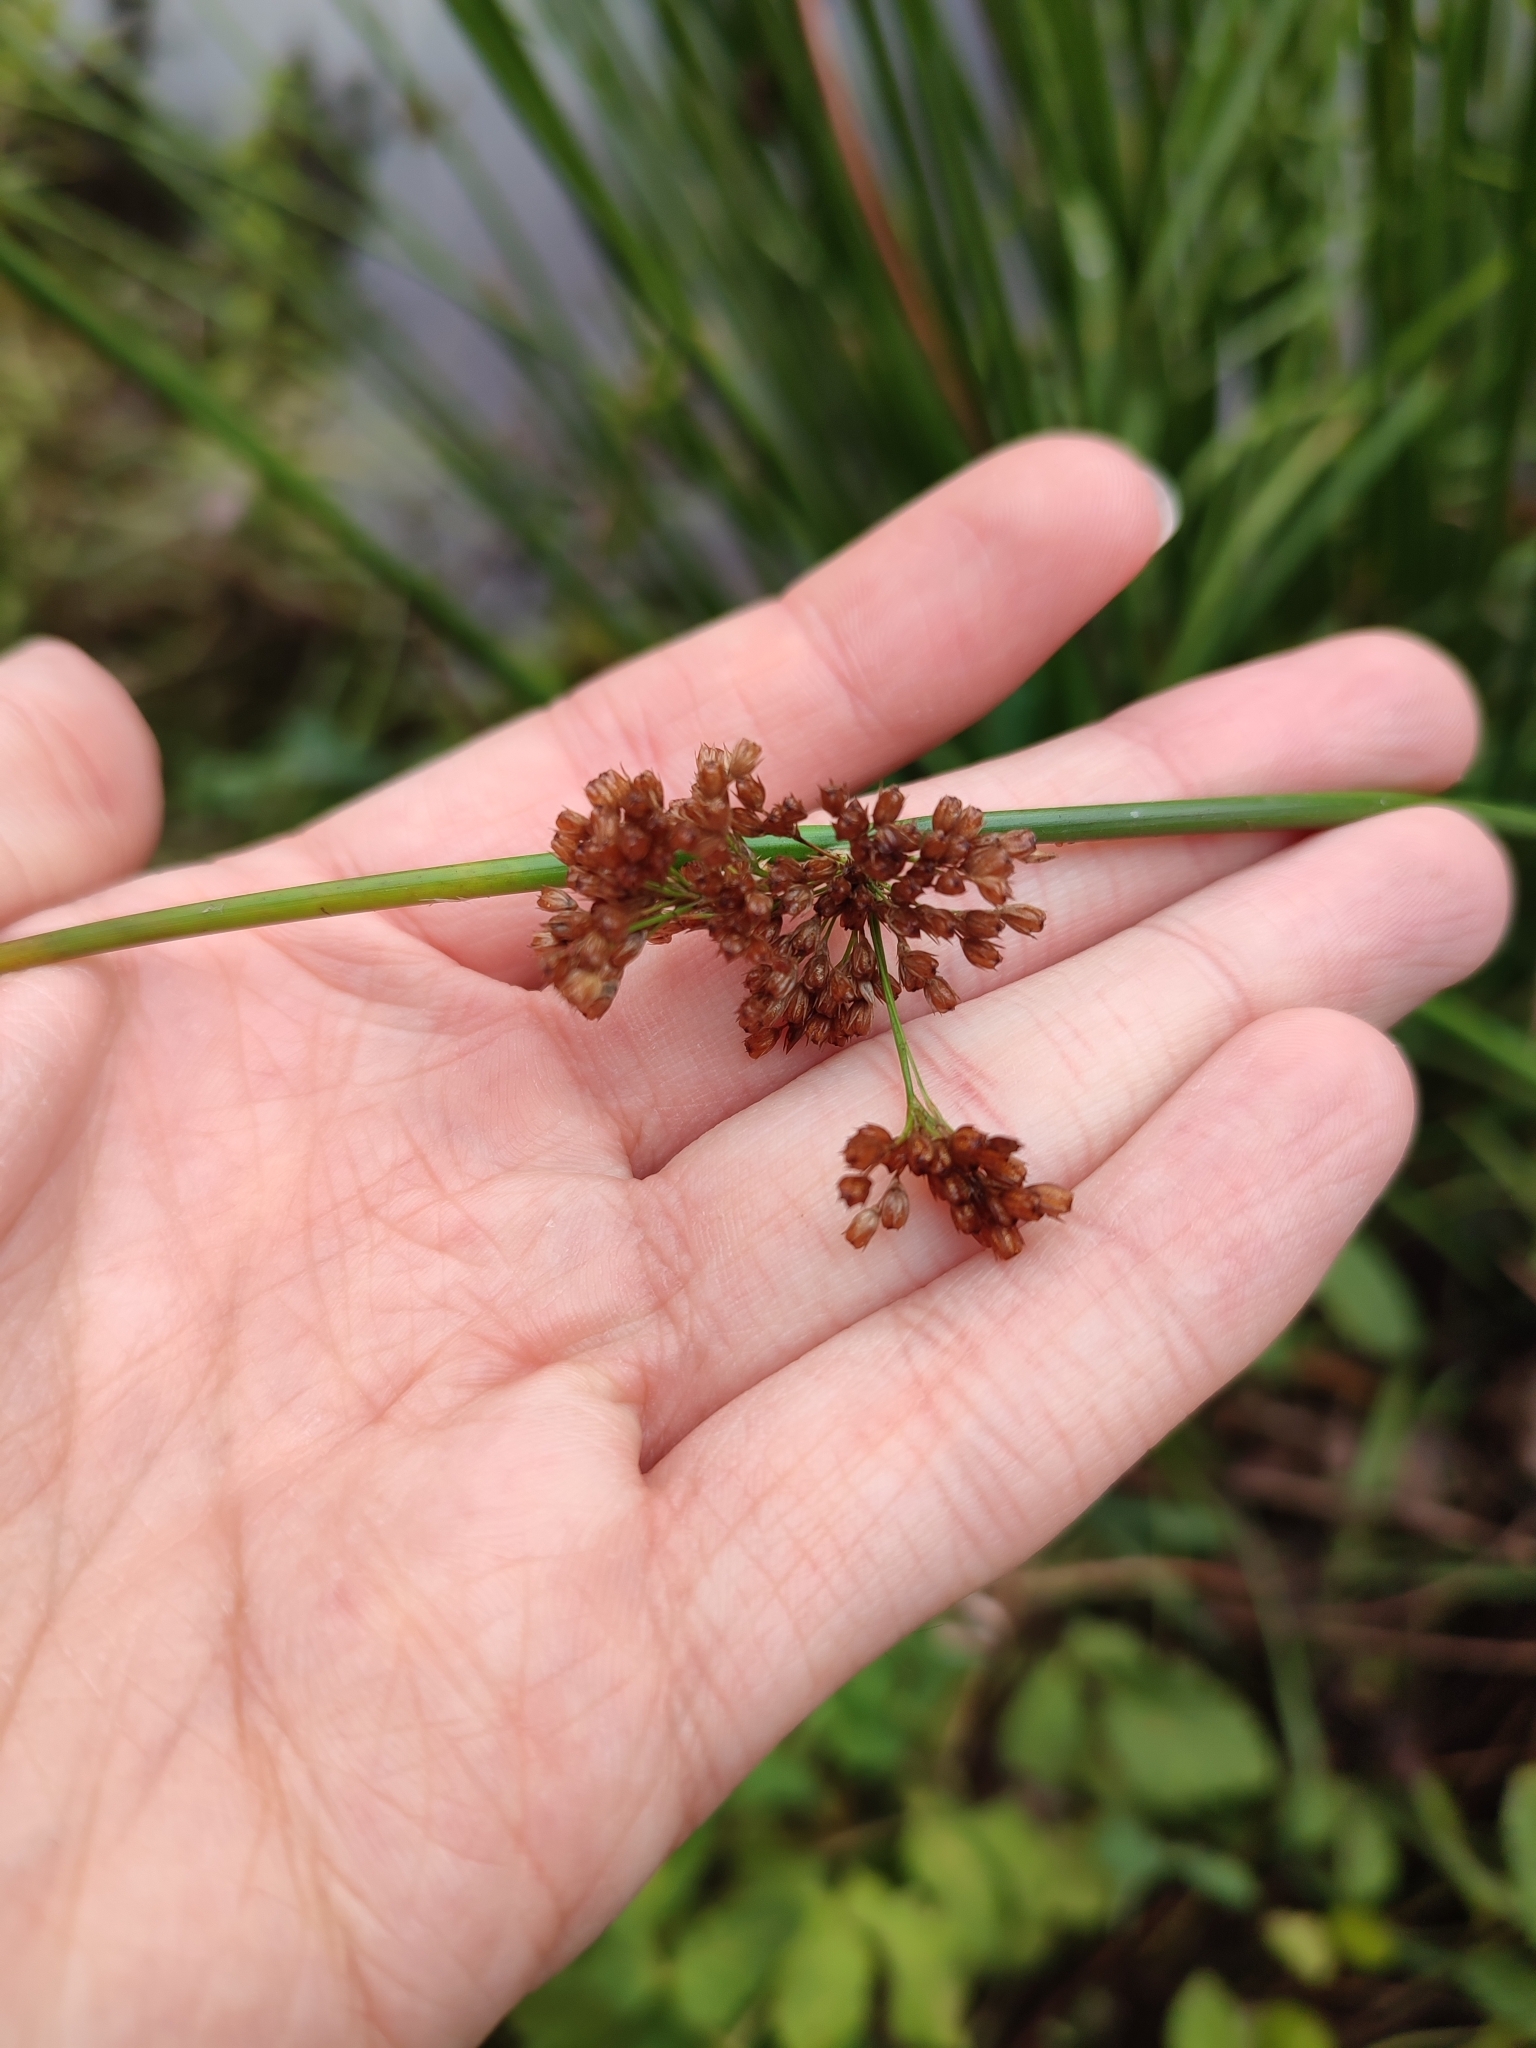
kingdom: Plantae
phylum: Tracheophyta
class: Liliopsida
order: Poales
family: Juncaceae
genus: Juncus
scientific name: Juncus effusus
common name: Soft rush
